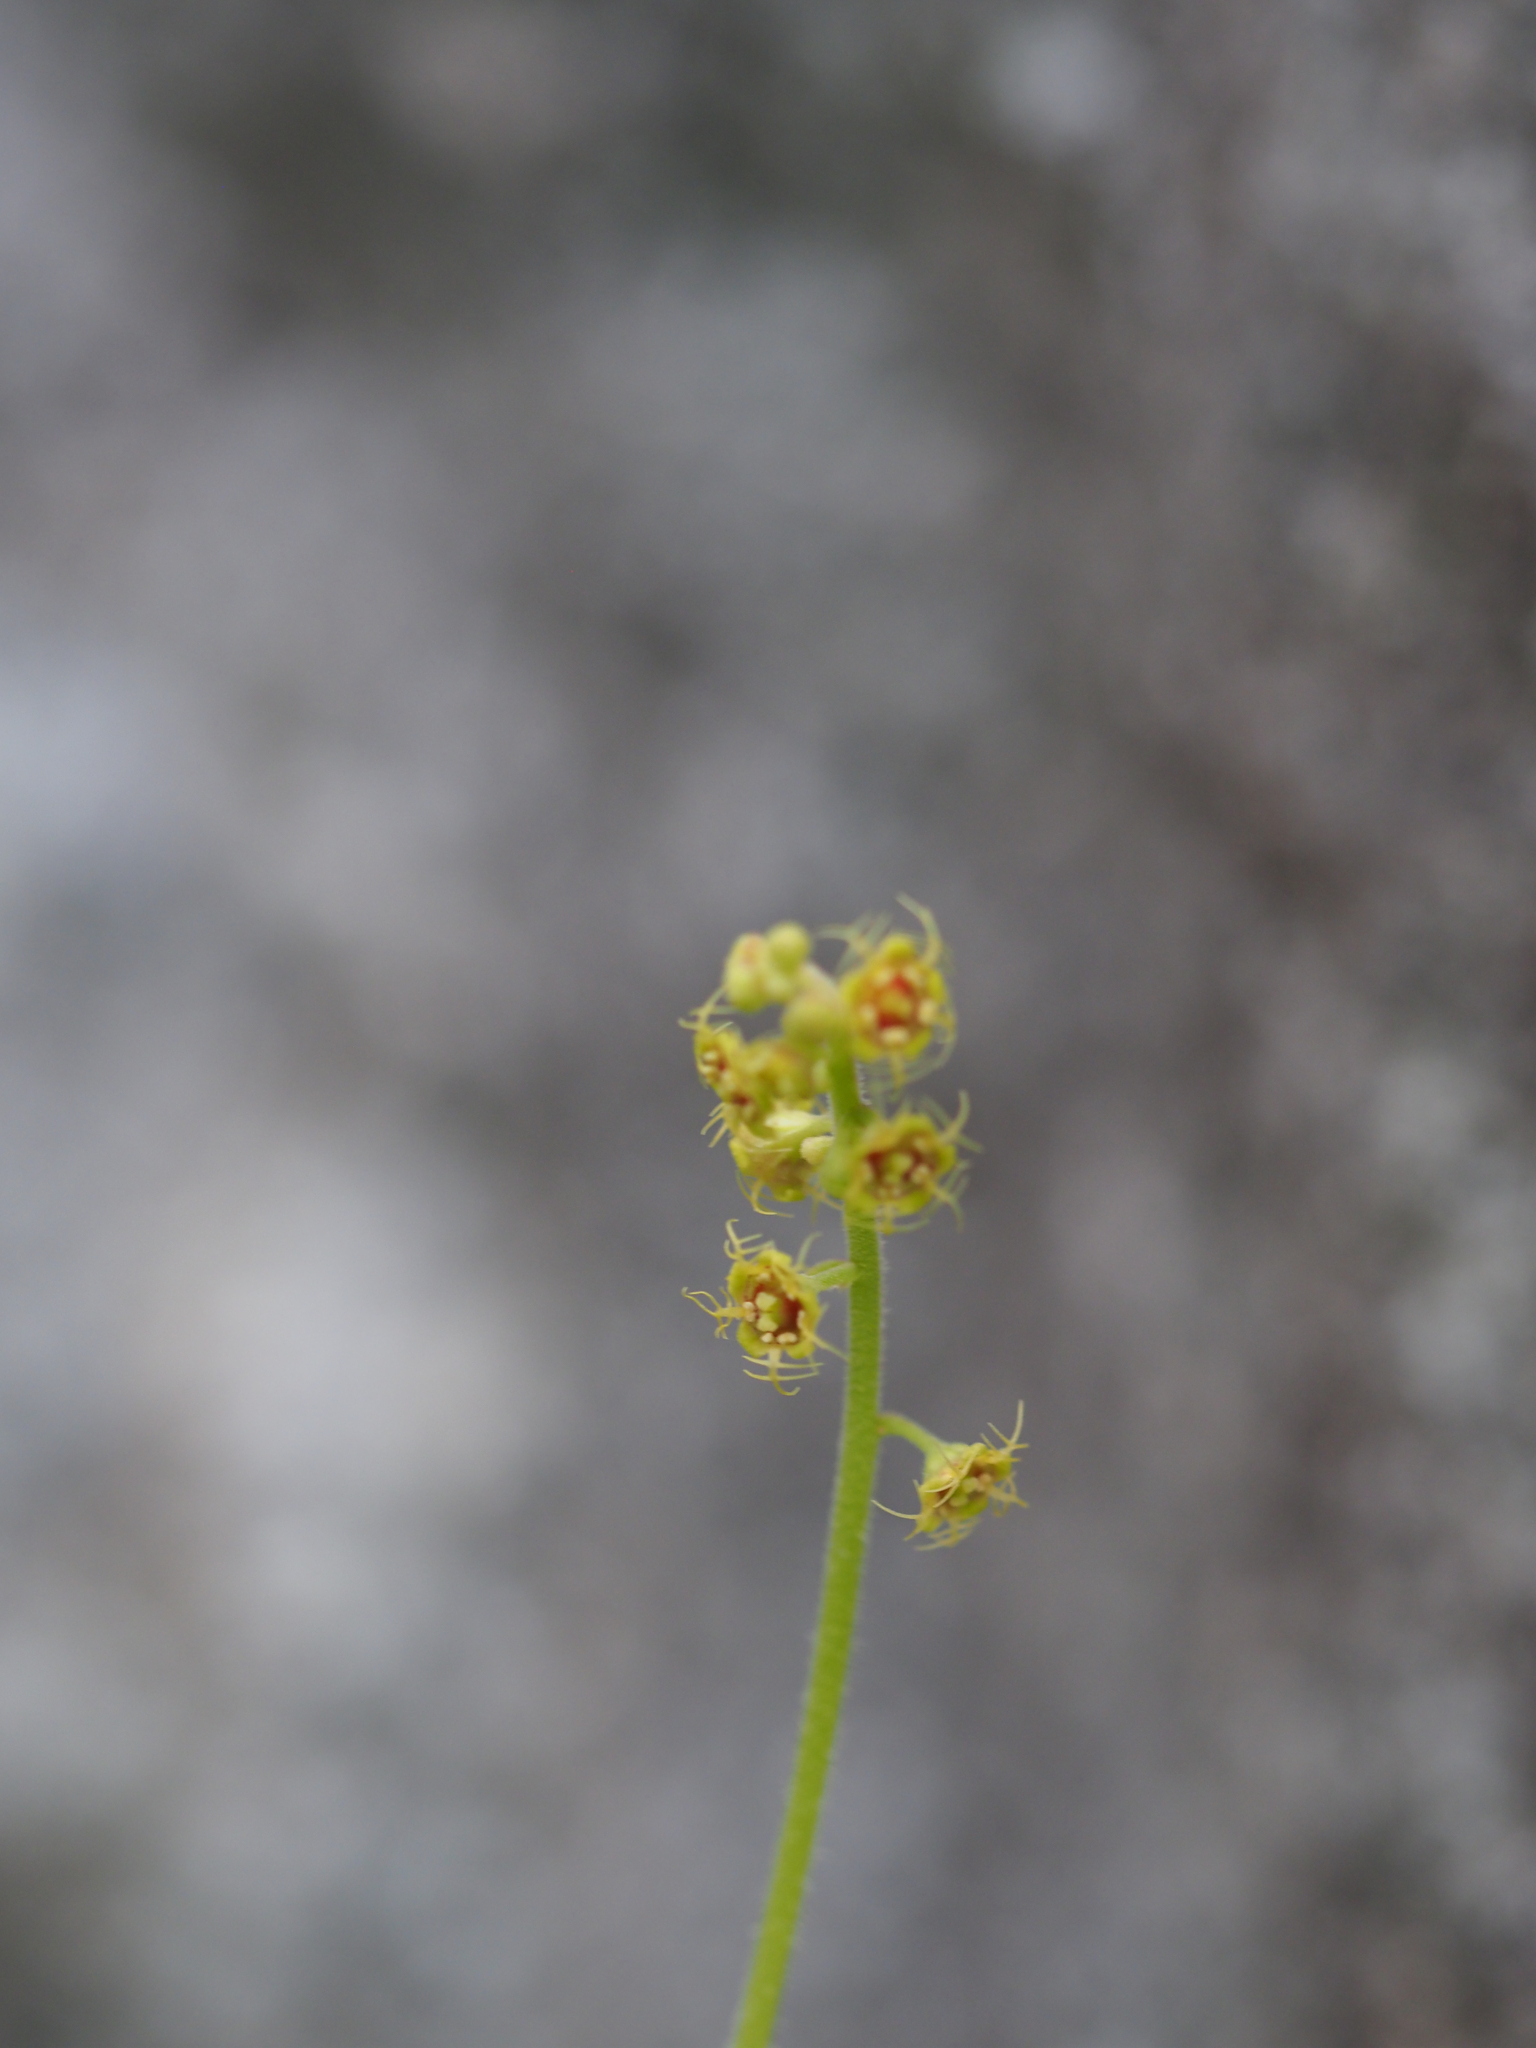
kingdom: Plantae
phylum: Tracheophyta
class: Magnoliopsida
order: Saxifragales
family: Saxifragaceae
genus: Pectiantia
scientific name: Pectiantia pentandra
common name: Alpine bishop's-cap
